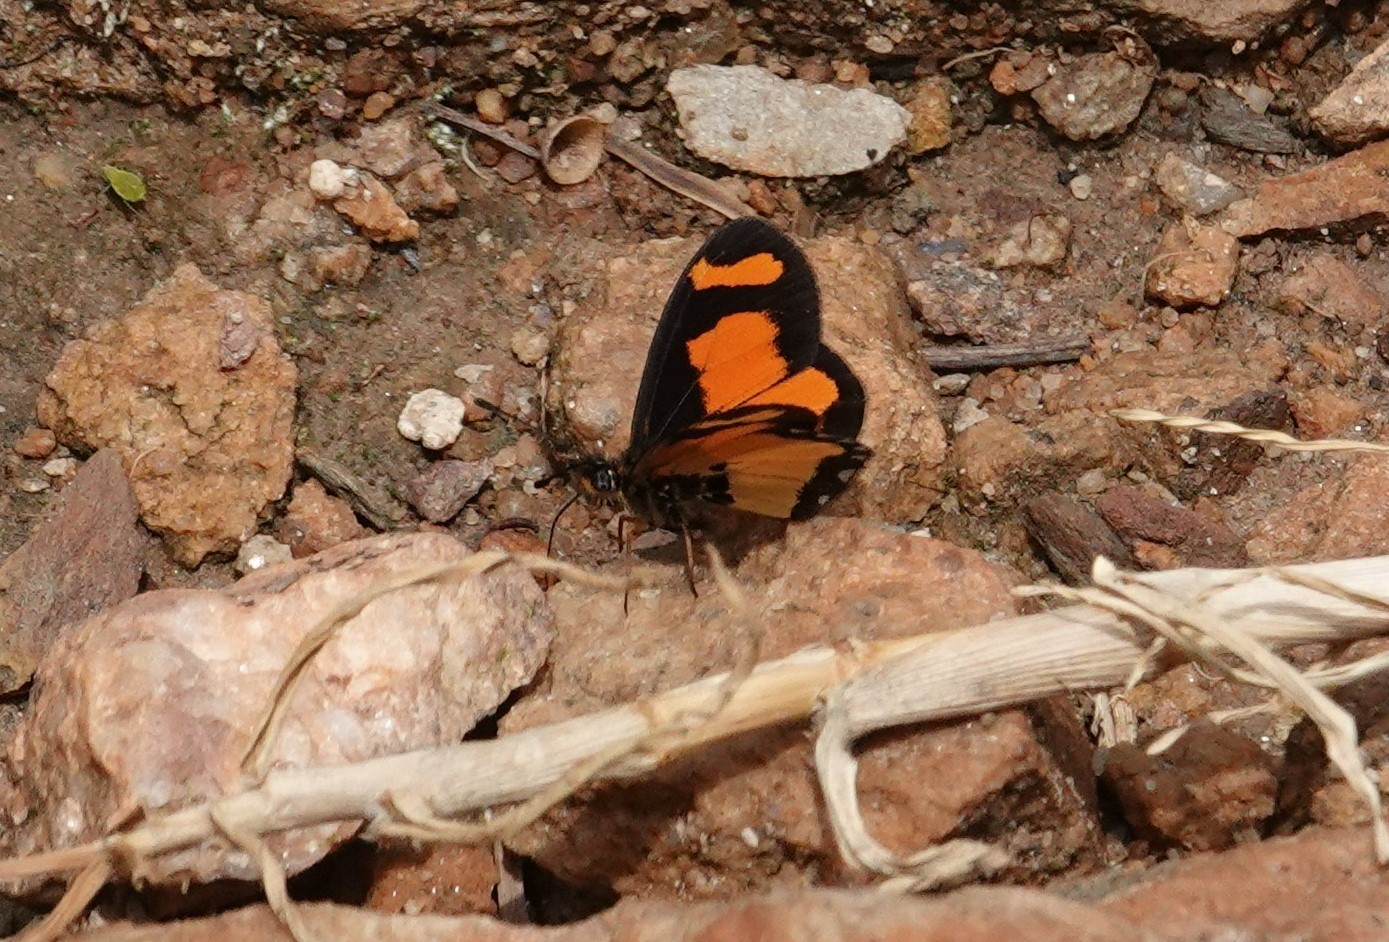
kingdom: Animalia
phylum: Arthropoda
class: Insecta
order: Lepidoptera
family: Nymphalidae
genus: Acraea
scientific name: Acraea
